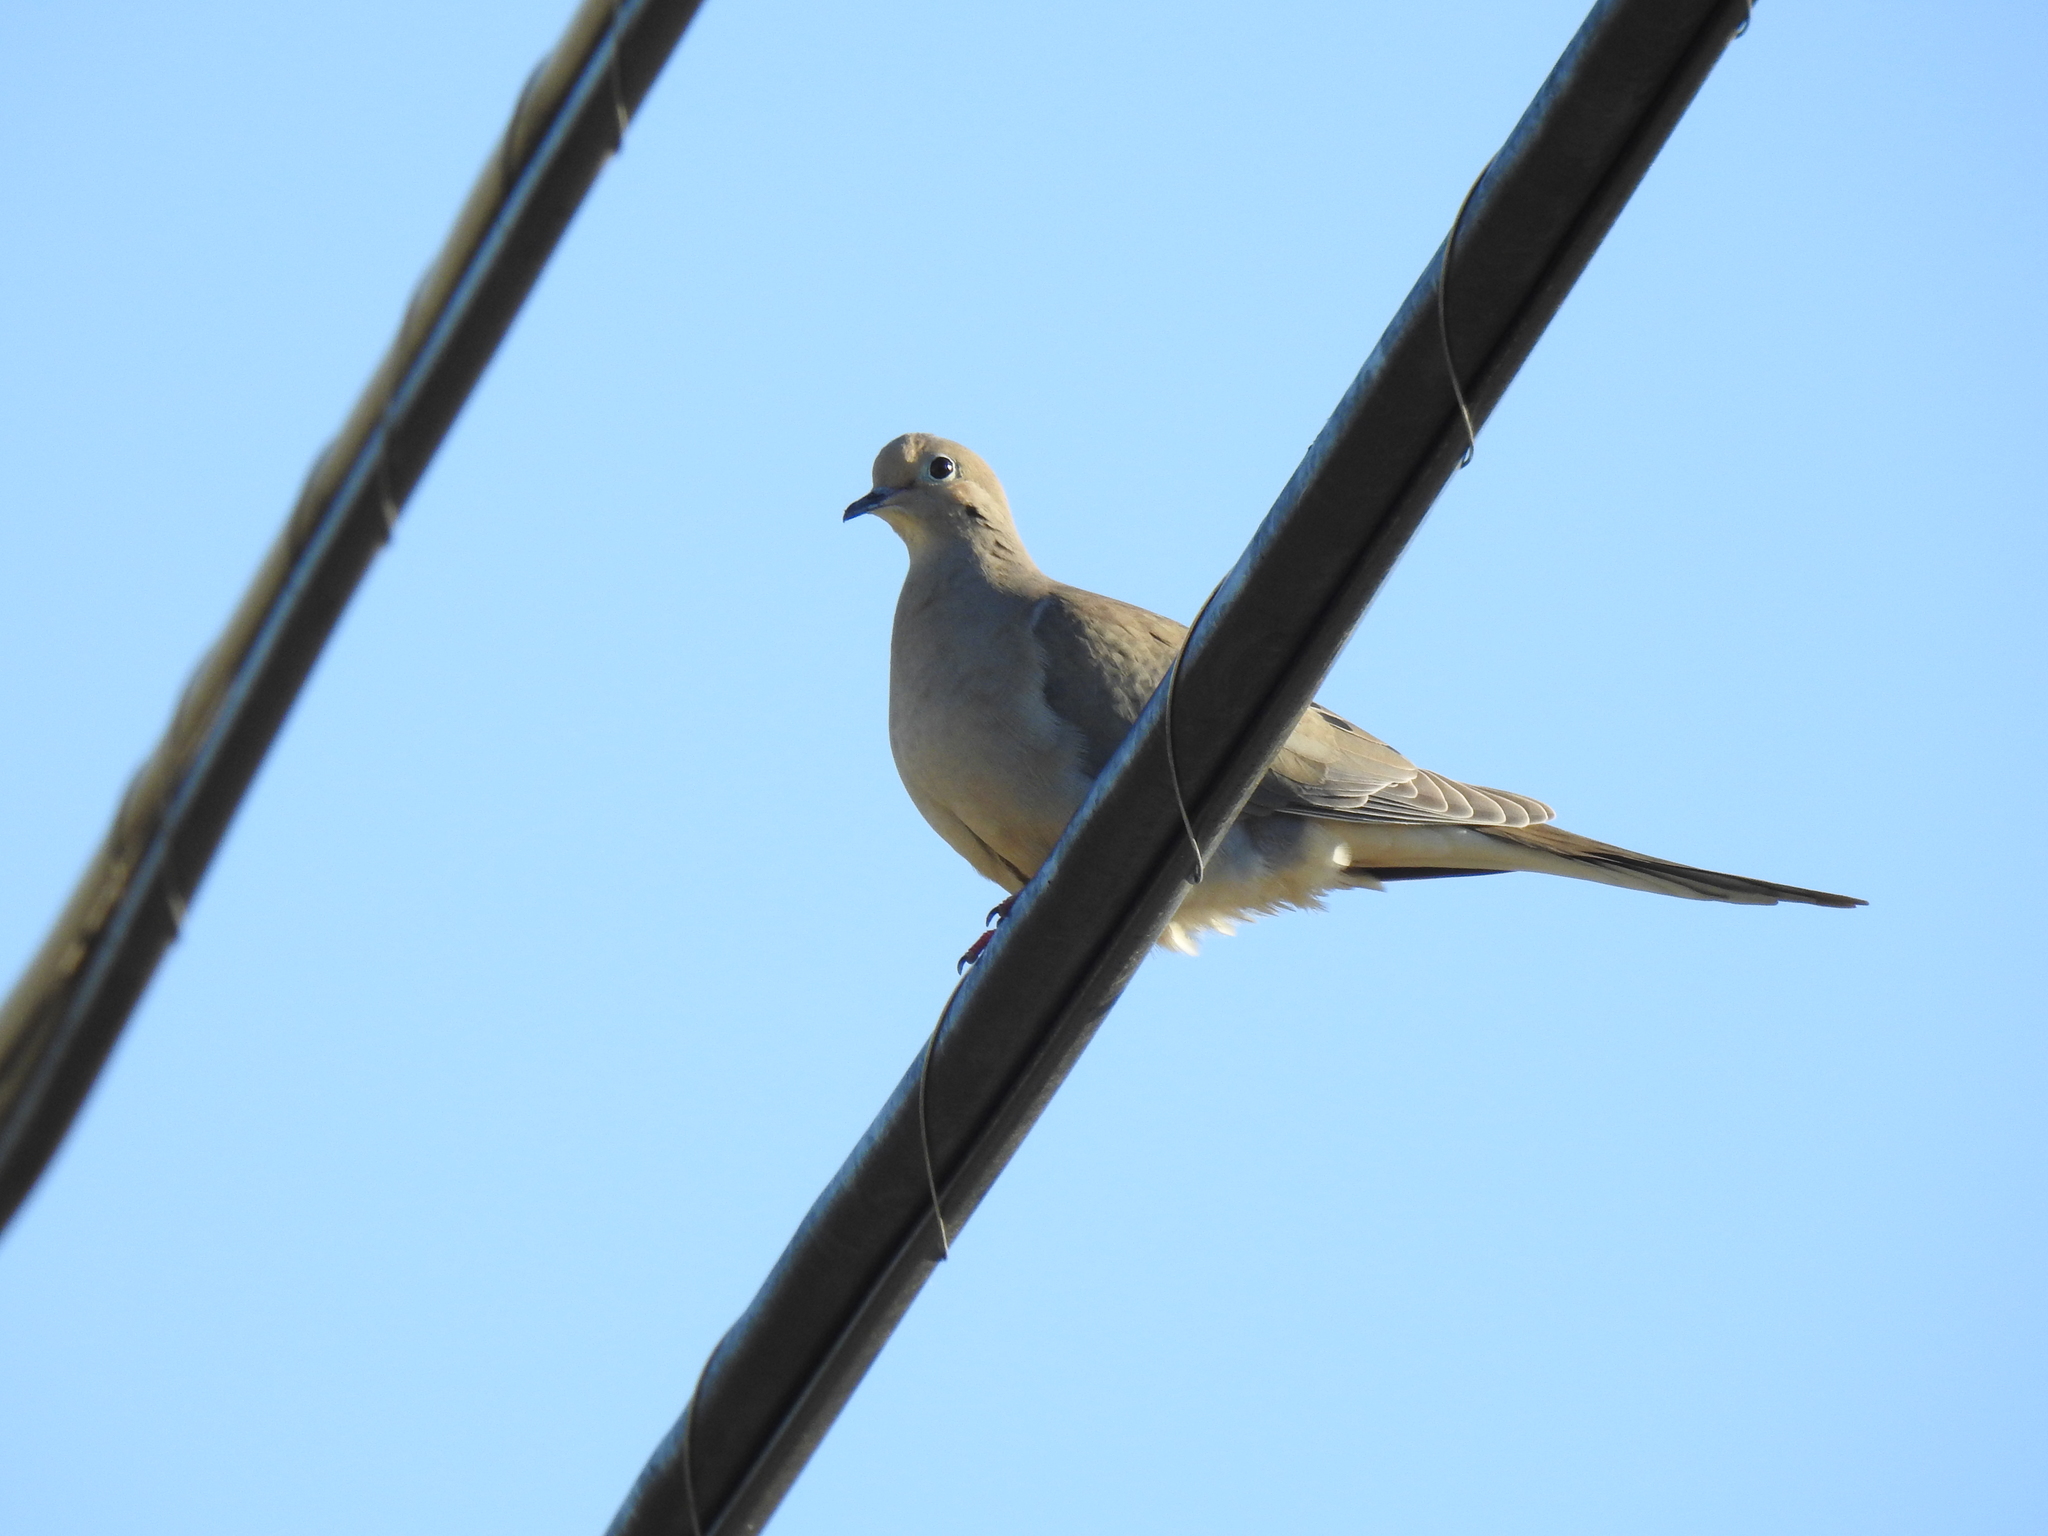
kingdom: Animalia
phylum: Chordata
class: Aves
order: Columbiformes
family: Columbidae
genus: Zenaida
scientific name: Zenaida macroura
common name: Mourning dove
